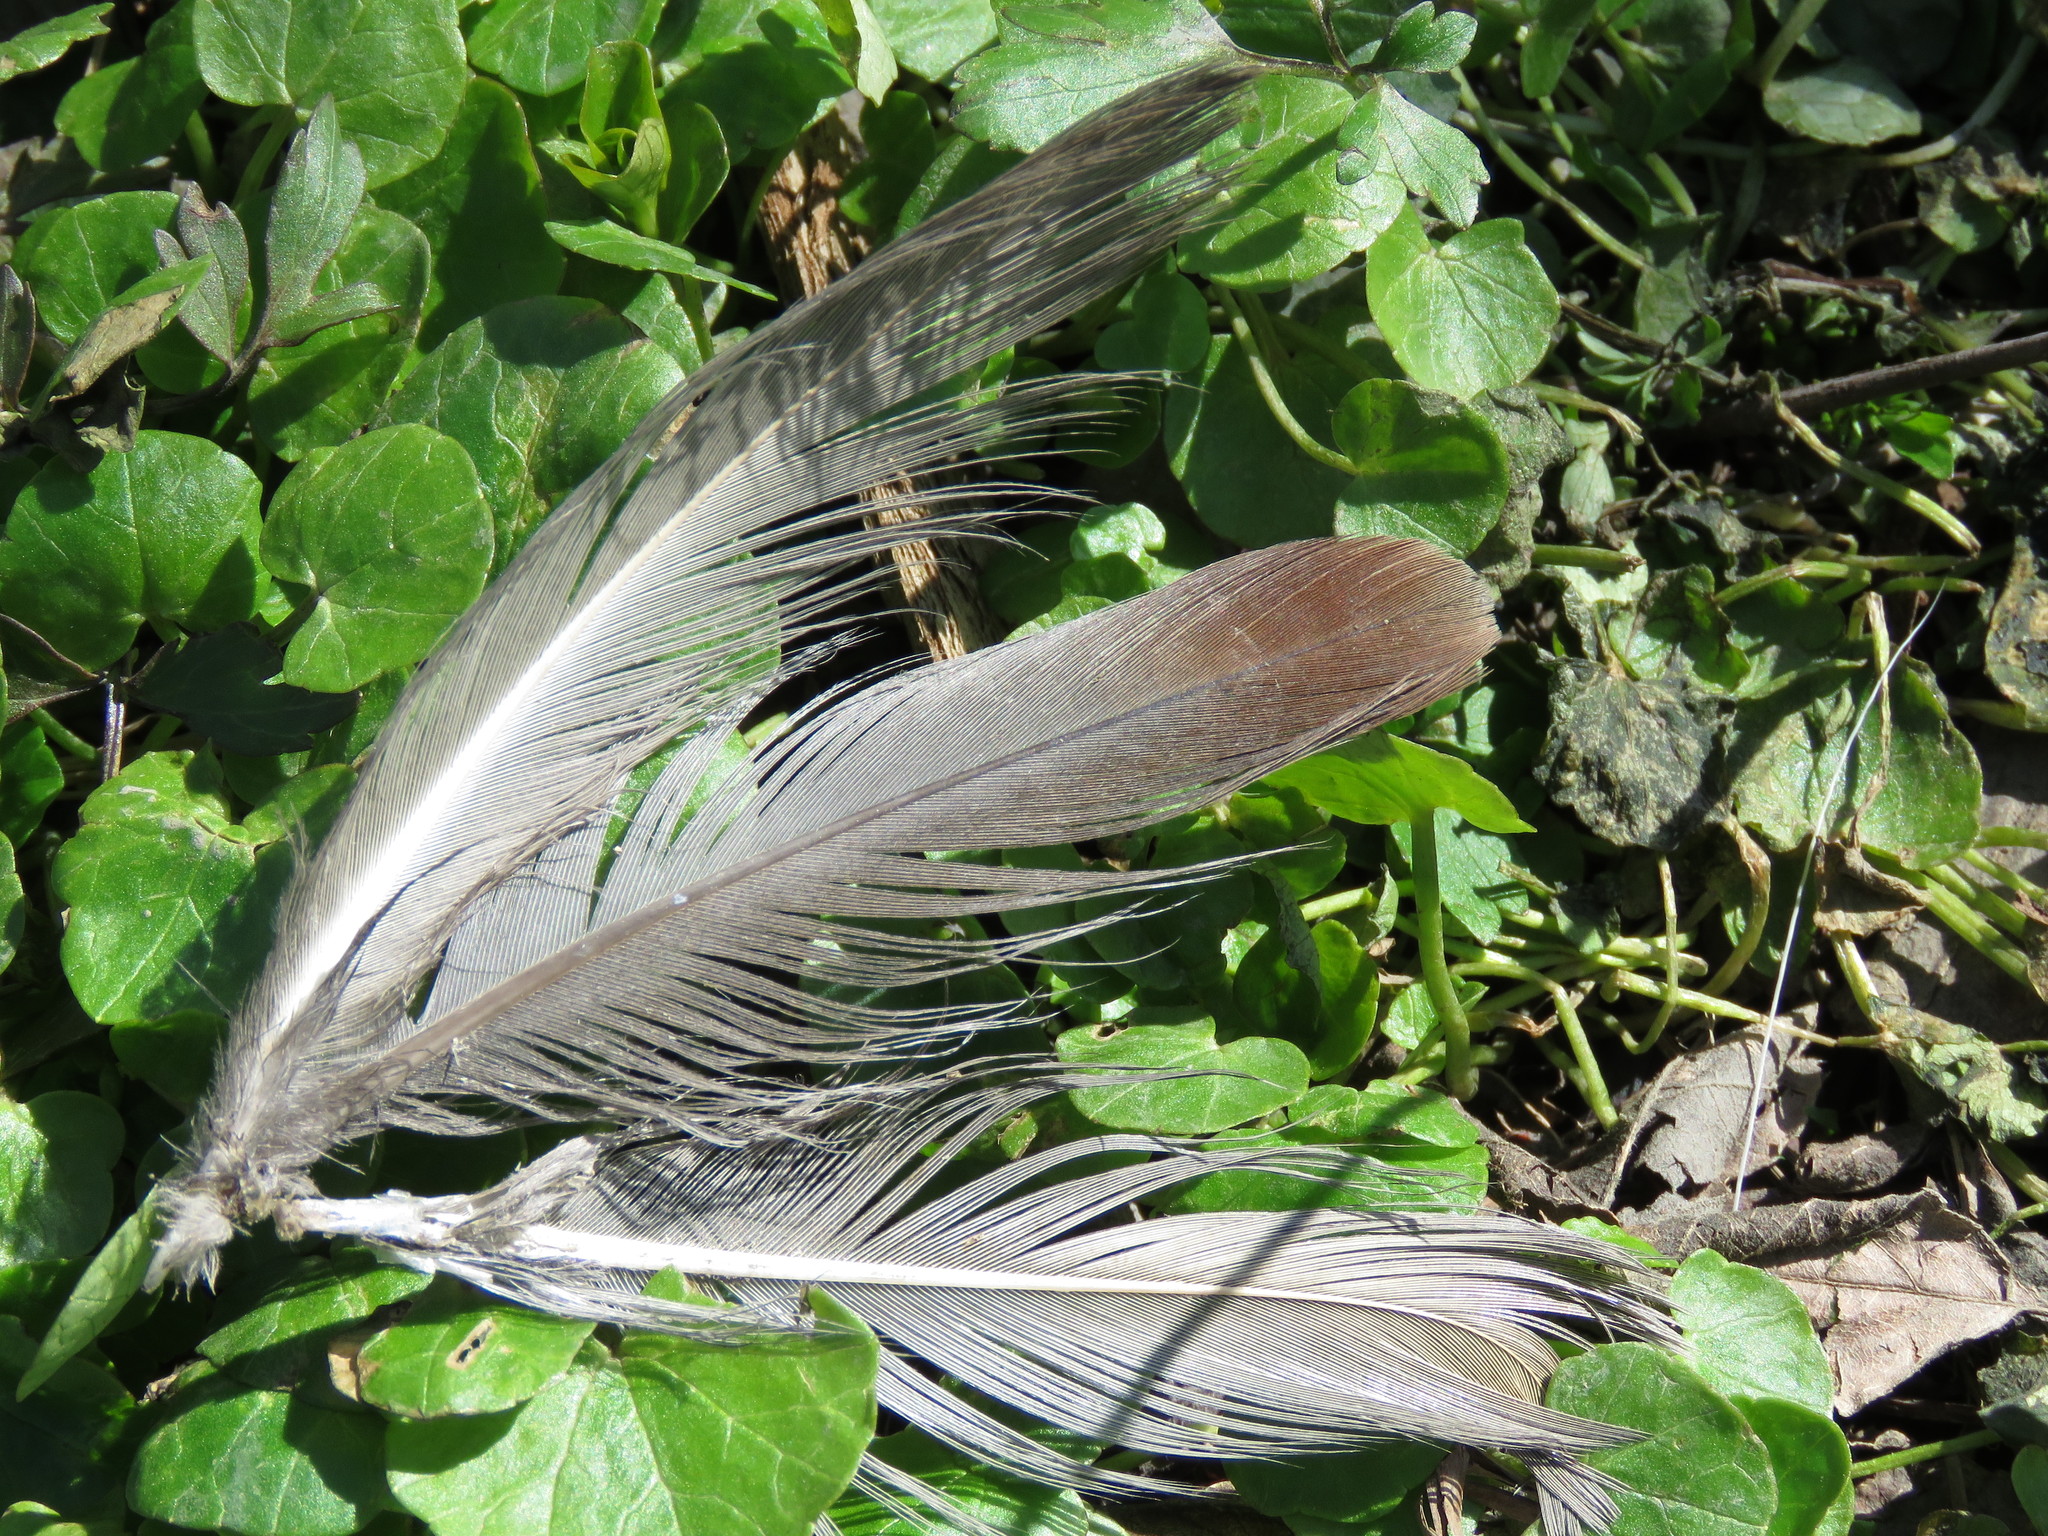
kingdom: Animalia
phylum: Chordata
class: Aves
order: Galliformes
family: Phasianidae
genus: Alectoris
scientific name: Alectoris chukar
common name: Chukar
